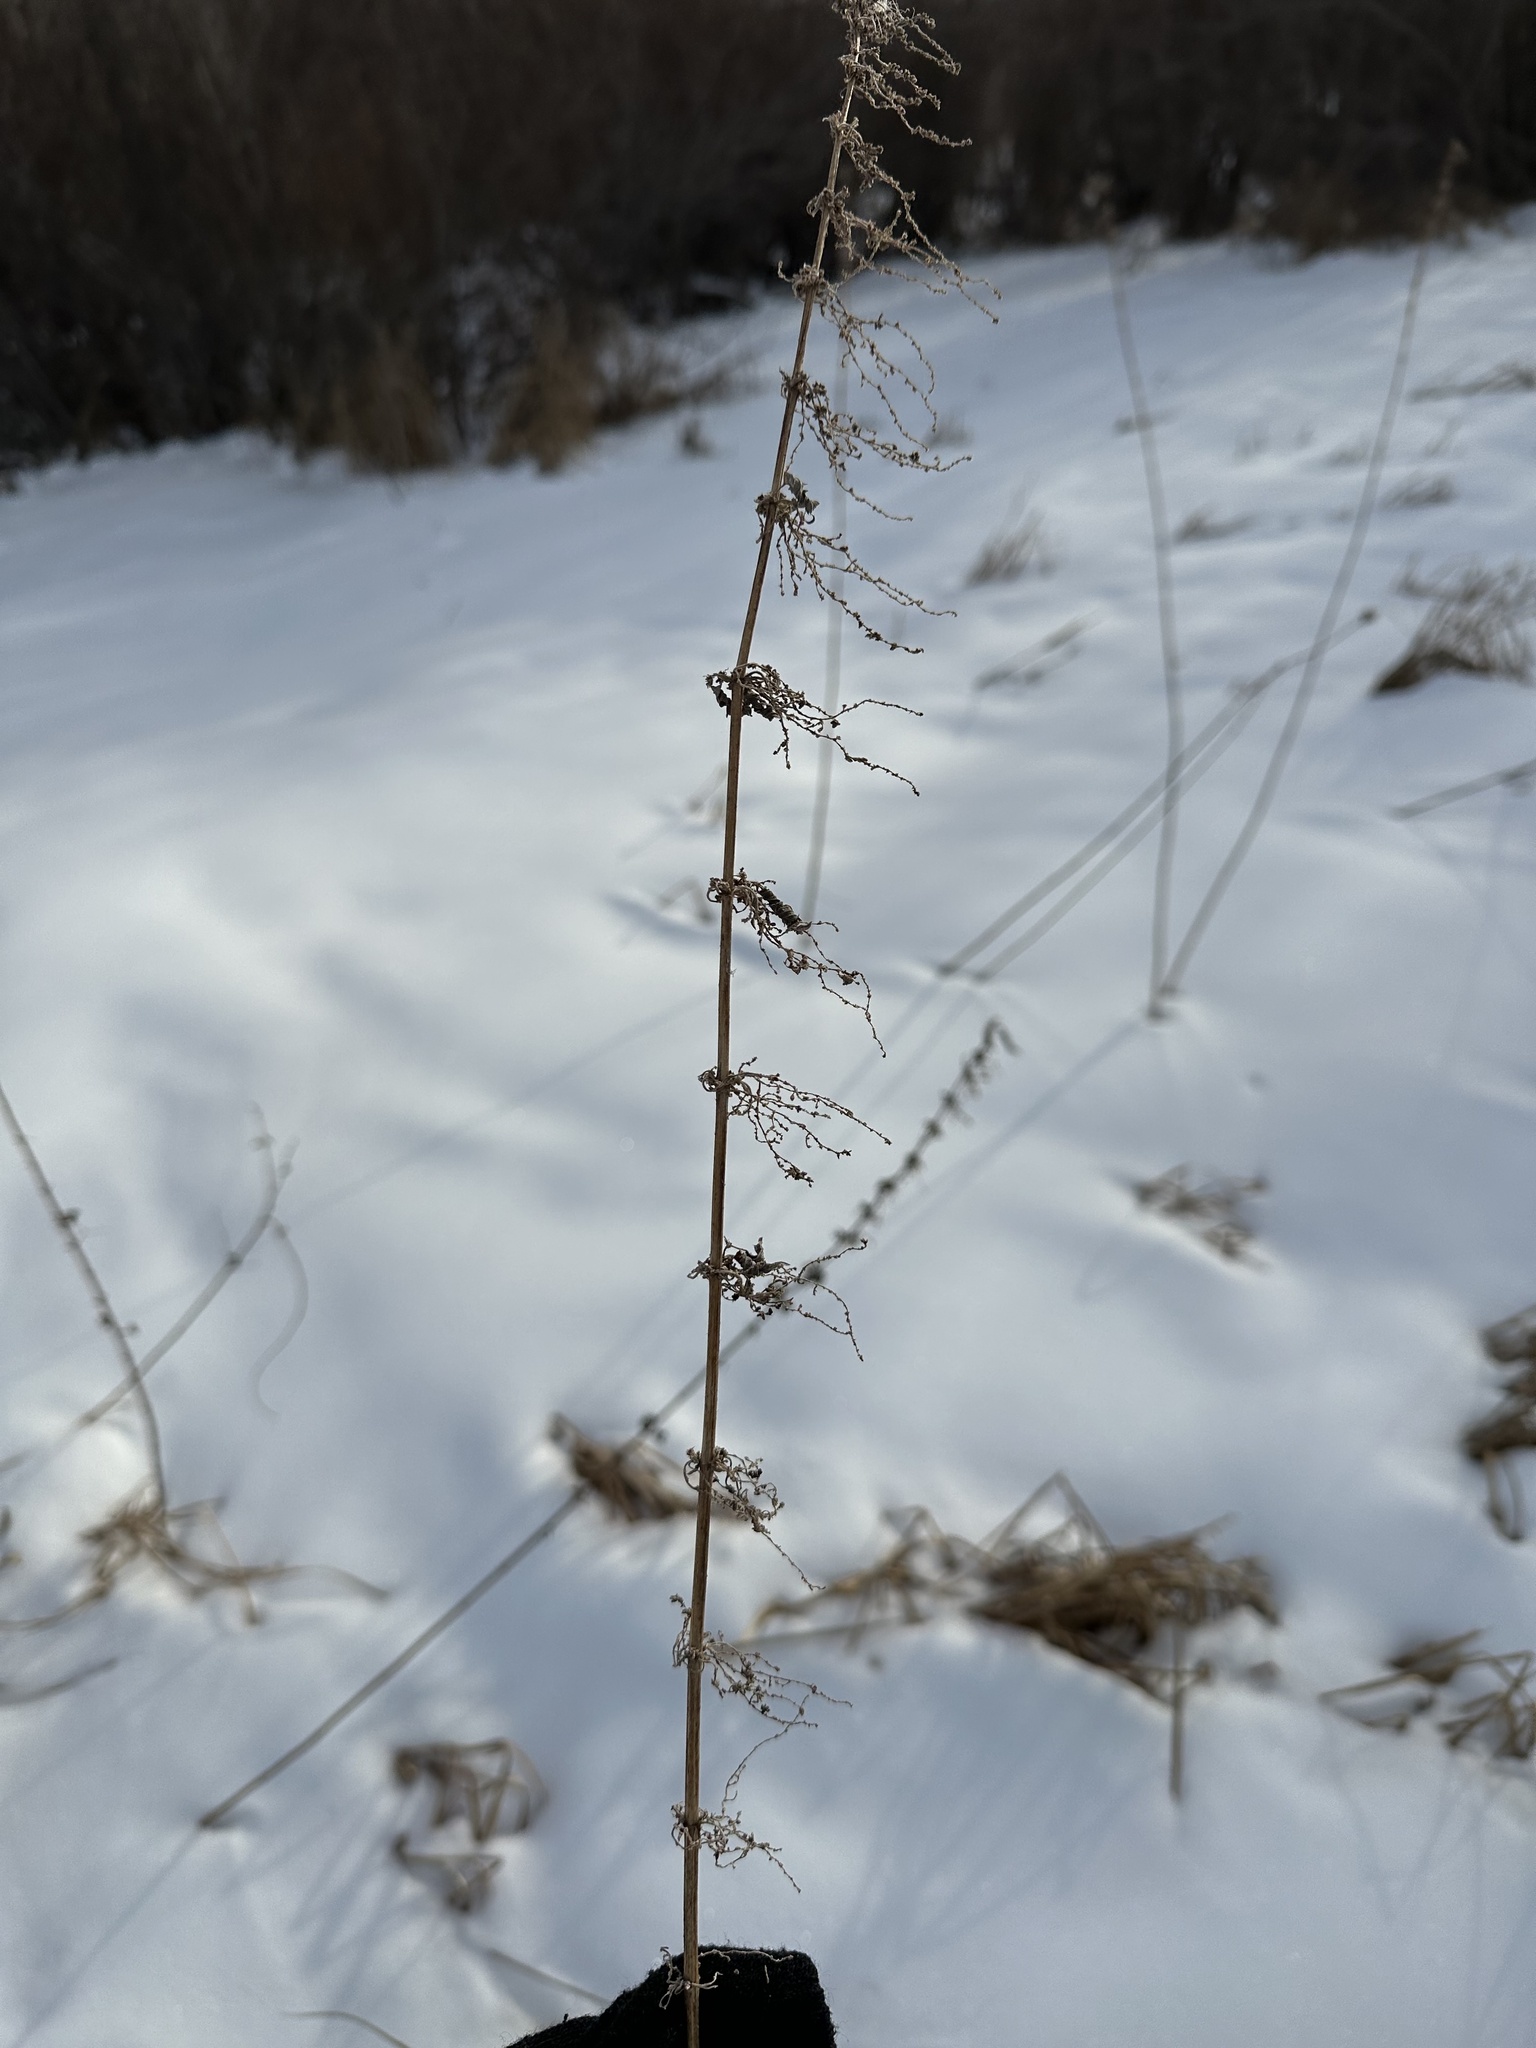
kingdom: Plantae
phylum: Tracheophyta
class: Magnoliopsida
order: Rosales
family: Urticaceae
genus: Urtica
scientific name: Urtica gracilis
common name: Slender stinging nettle
